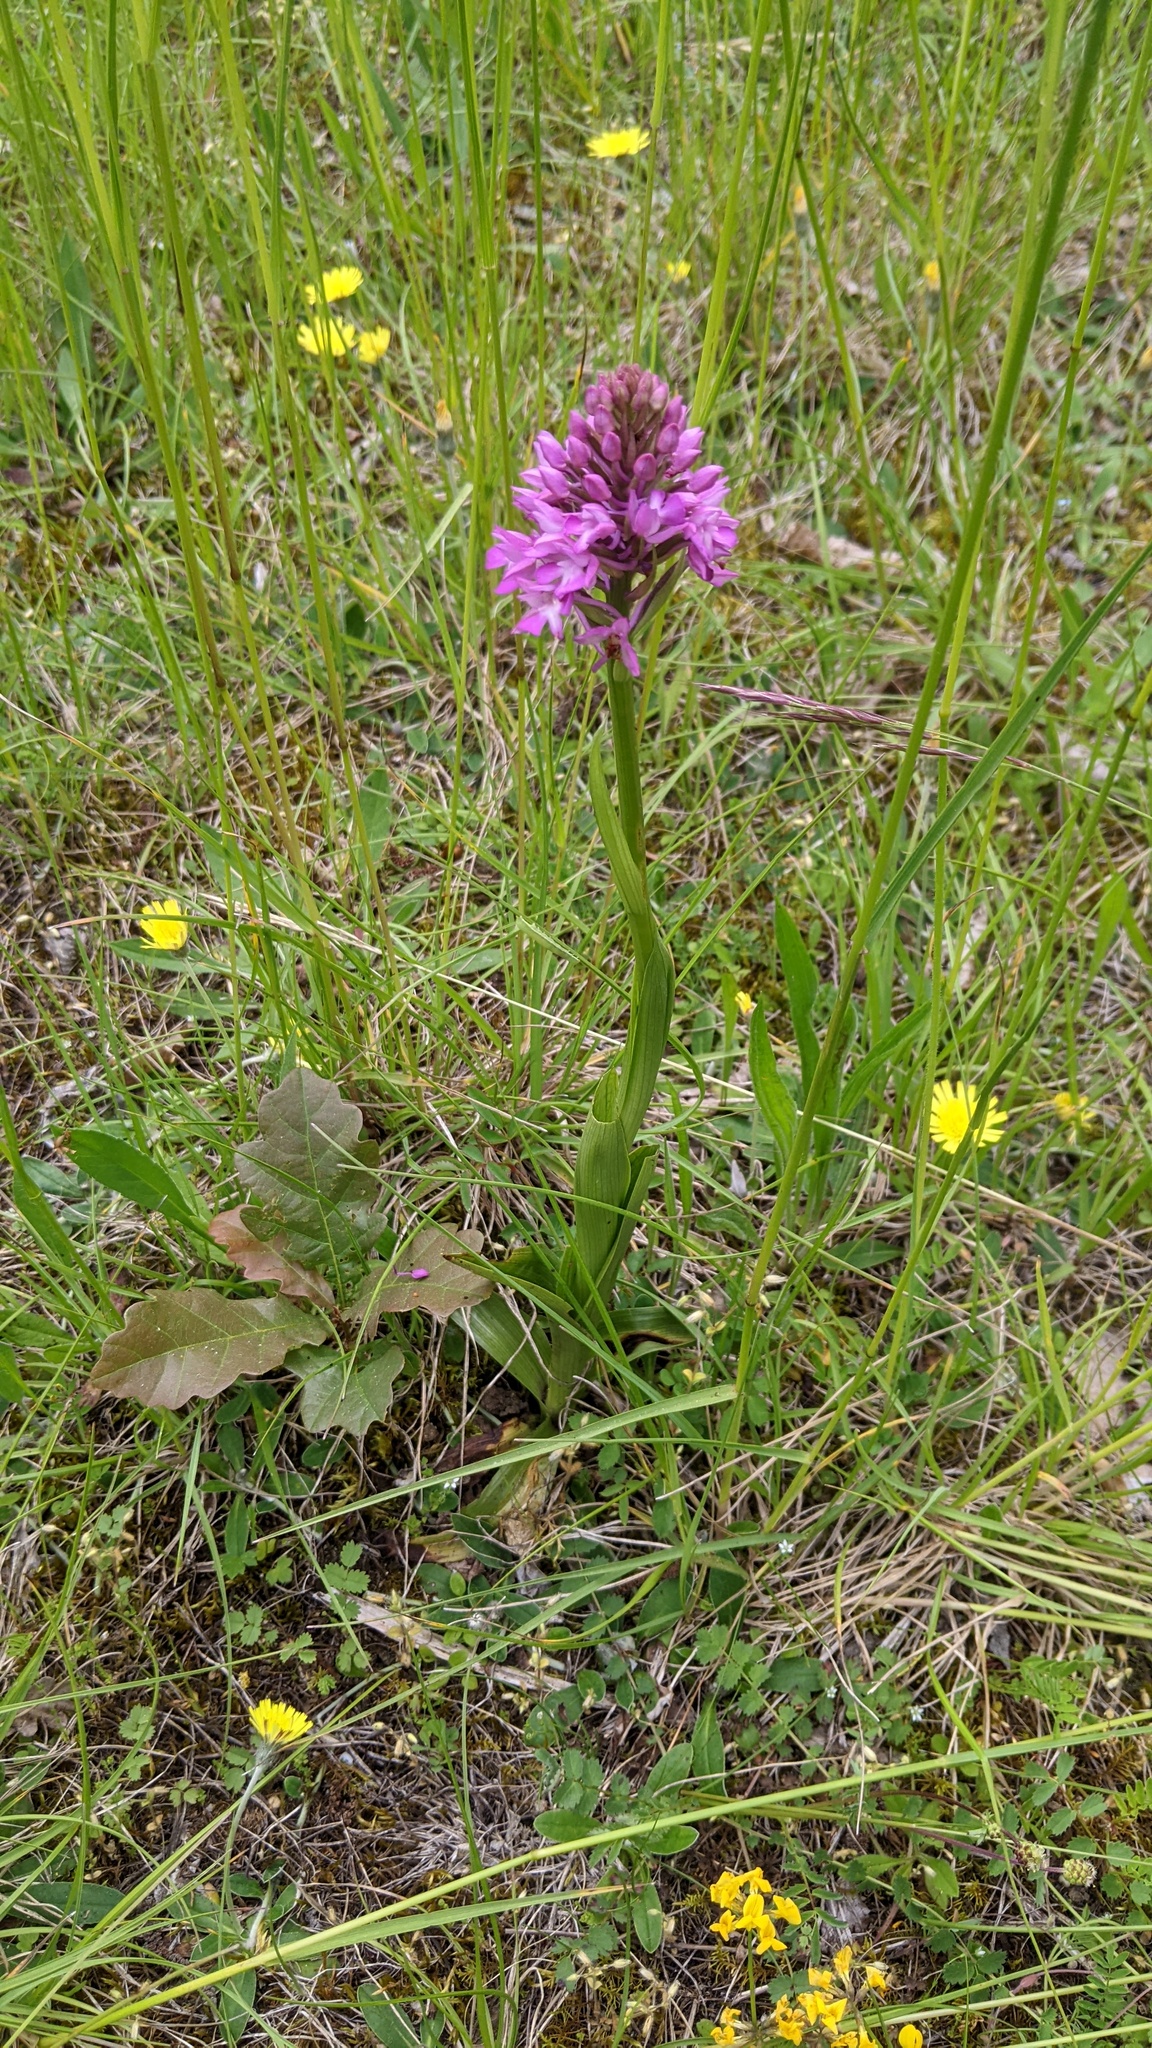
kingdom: Plantae
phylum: Tracheophyta
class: Liliopsida
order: Asparagales
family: Orchidaceae
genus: Anacamptis
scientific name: Anacamptis pyramidalis
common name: Pyramidal orchid
